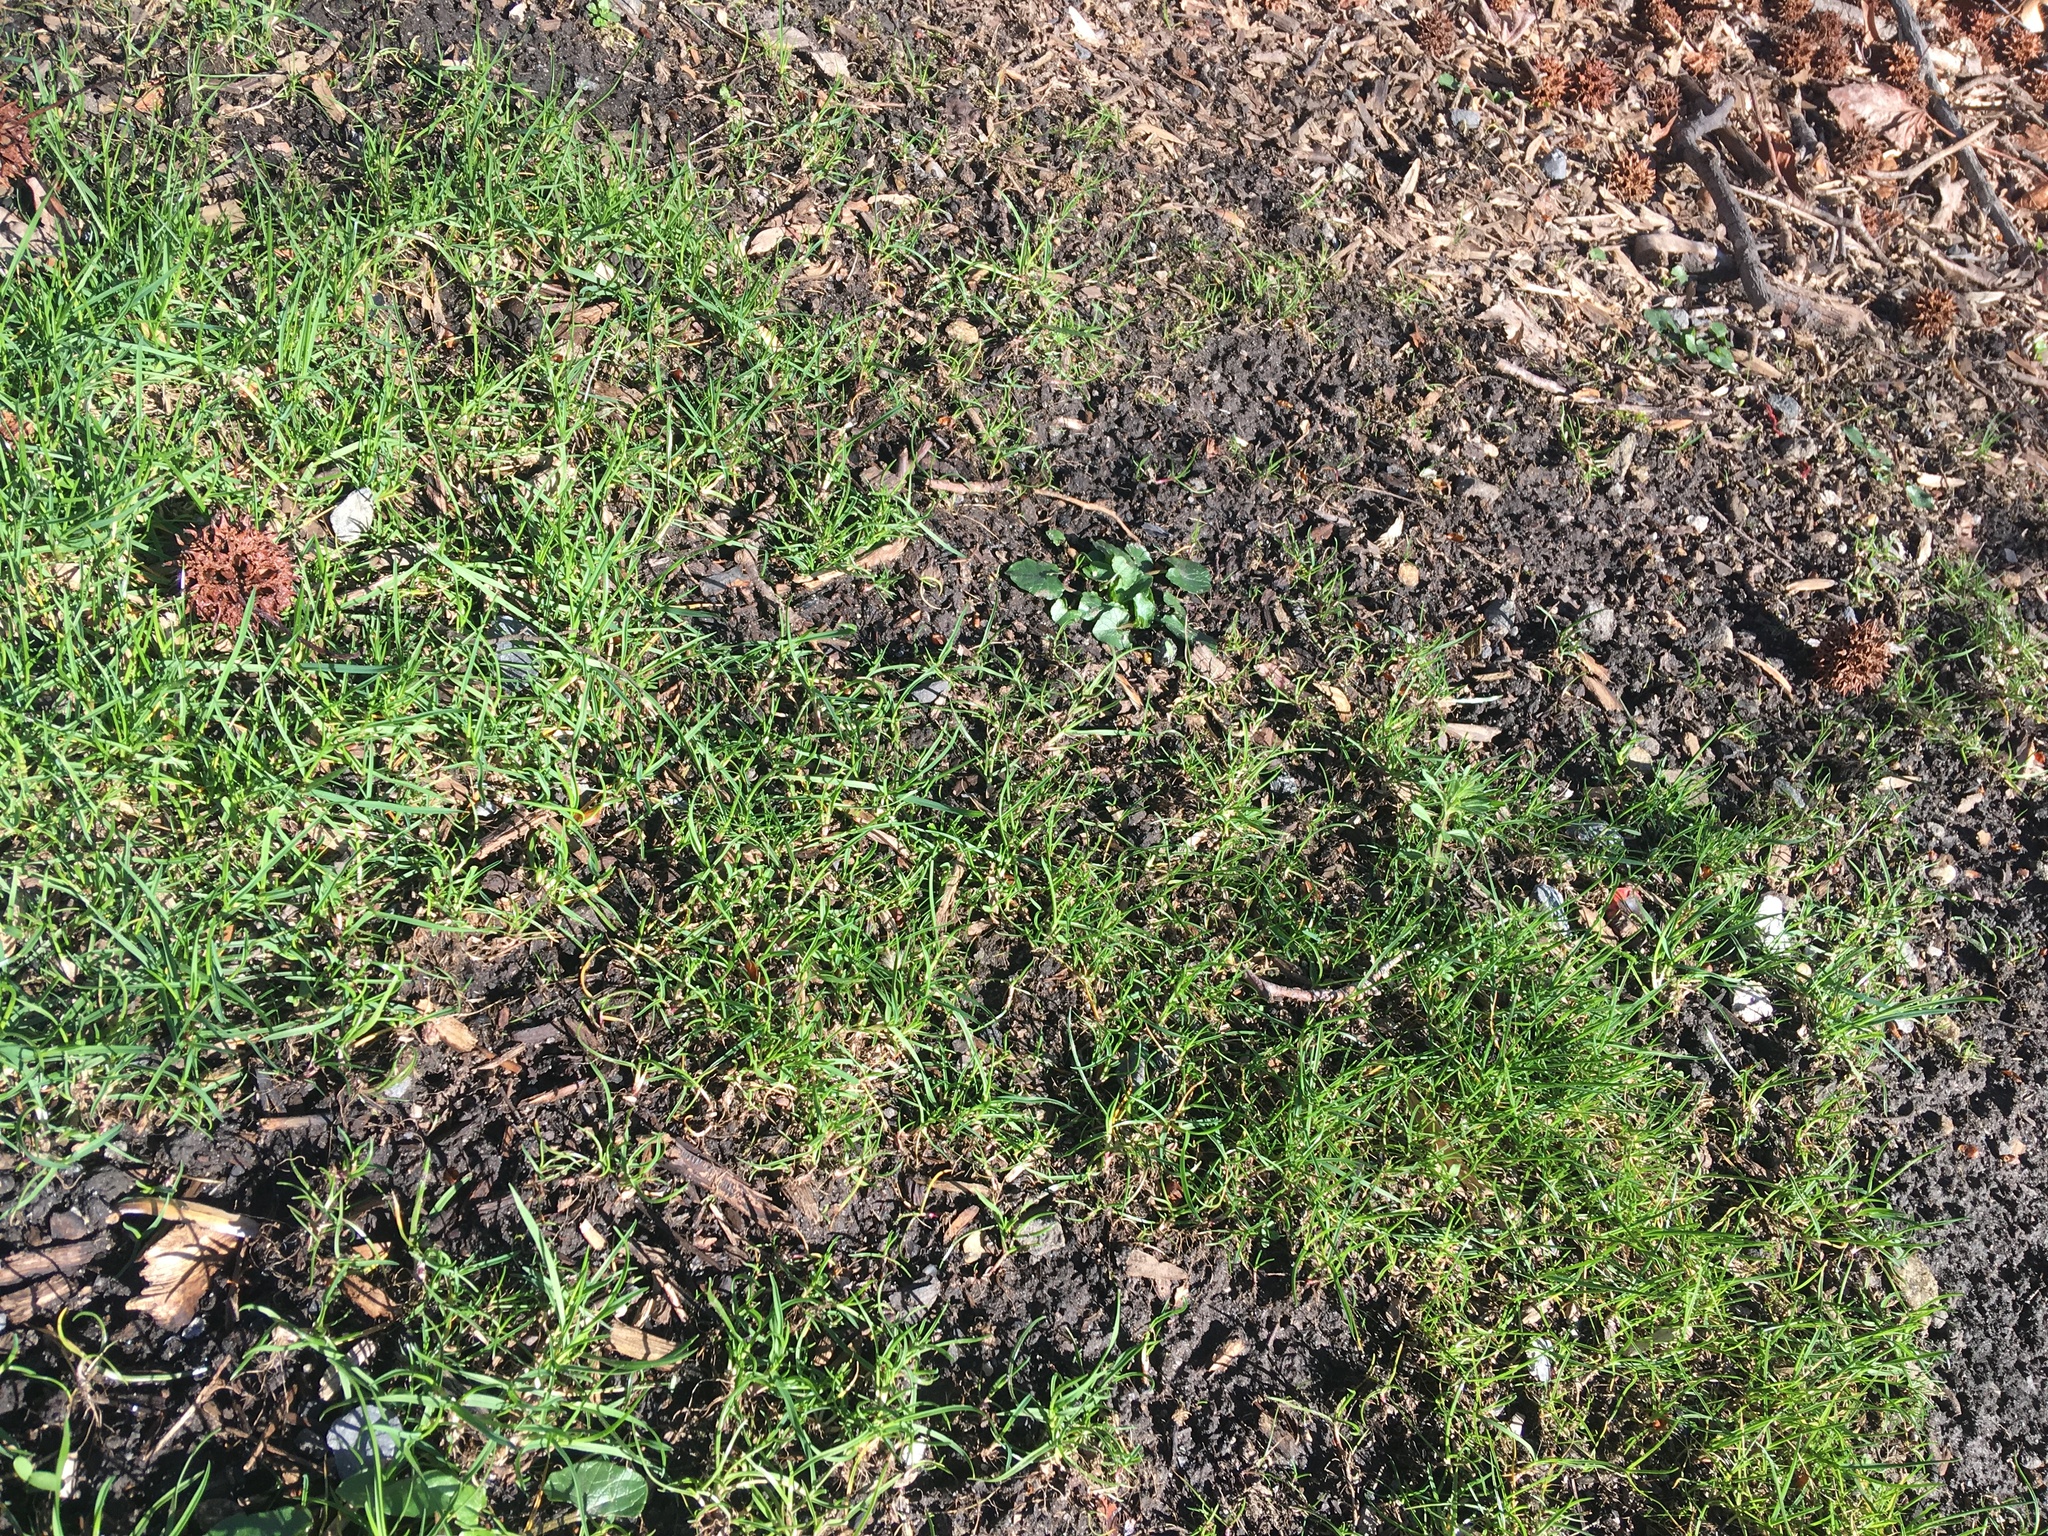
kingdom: Plantae
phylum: Tracheophyta
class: Magnoliopsida
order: Ranunculales
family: Ranunculaceae
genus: Ficaria
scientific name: Ficaria verna
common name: Lesser celandine
